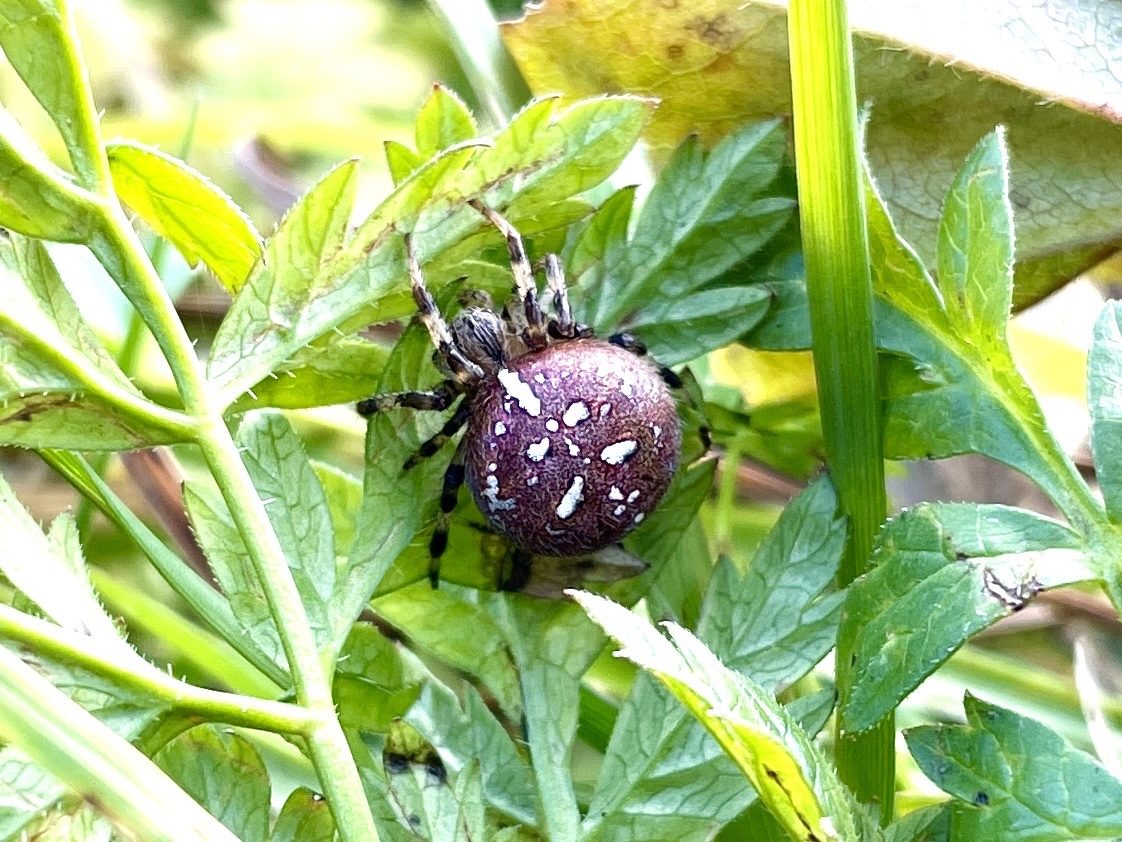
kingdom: Animalia
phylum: Arthropoda
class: Arachnida
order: Araneae
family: Araneidae
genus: Araneus
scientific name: Araneus quadratus
